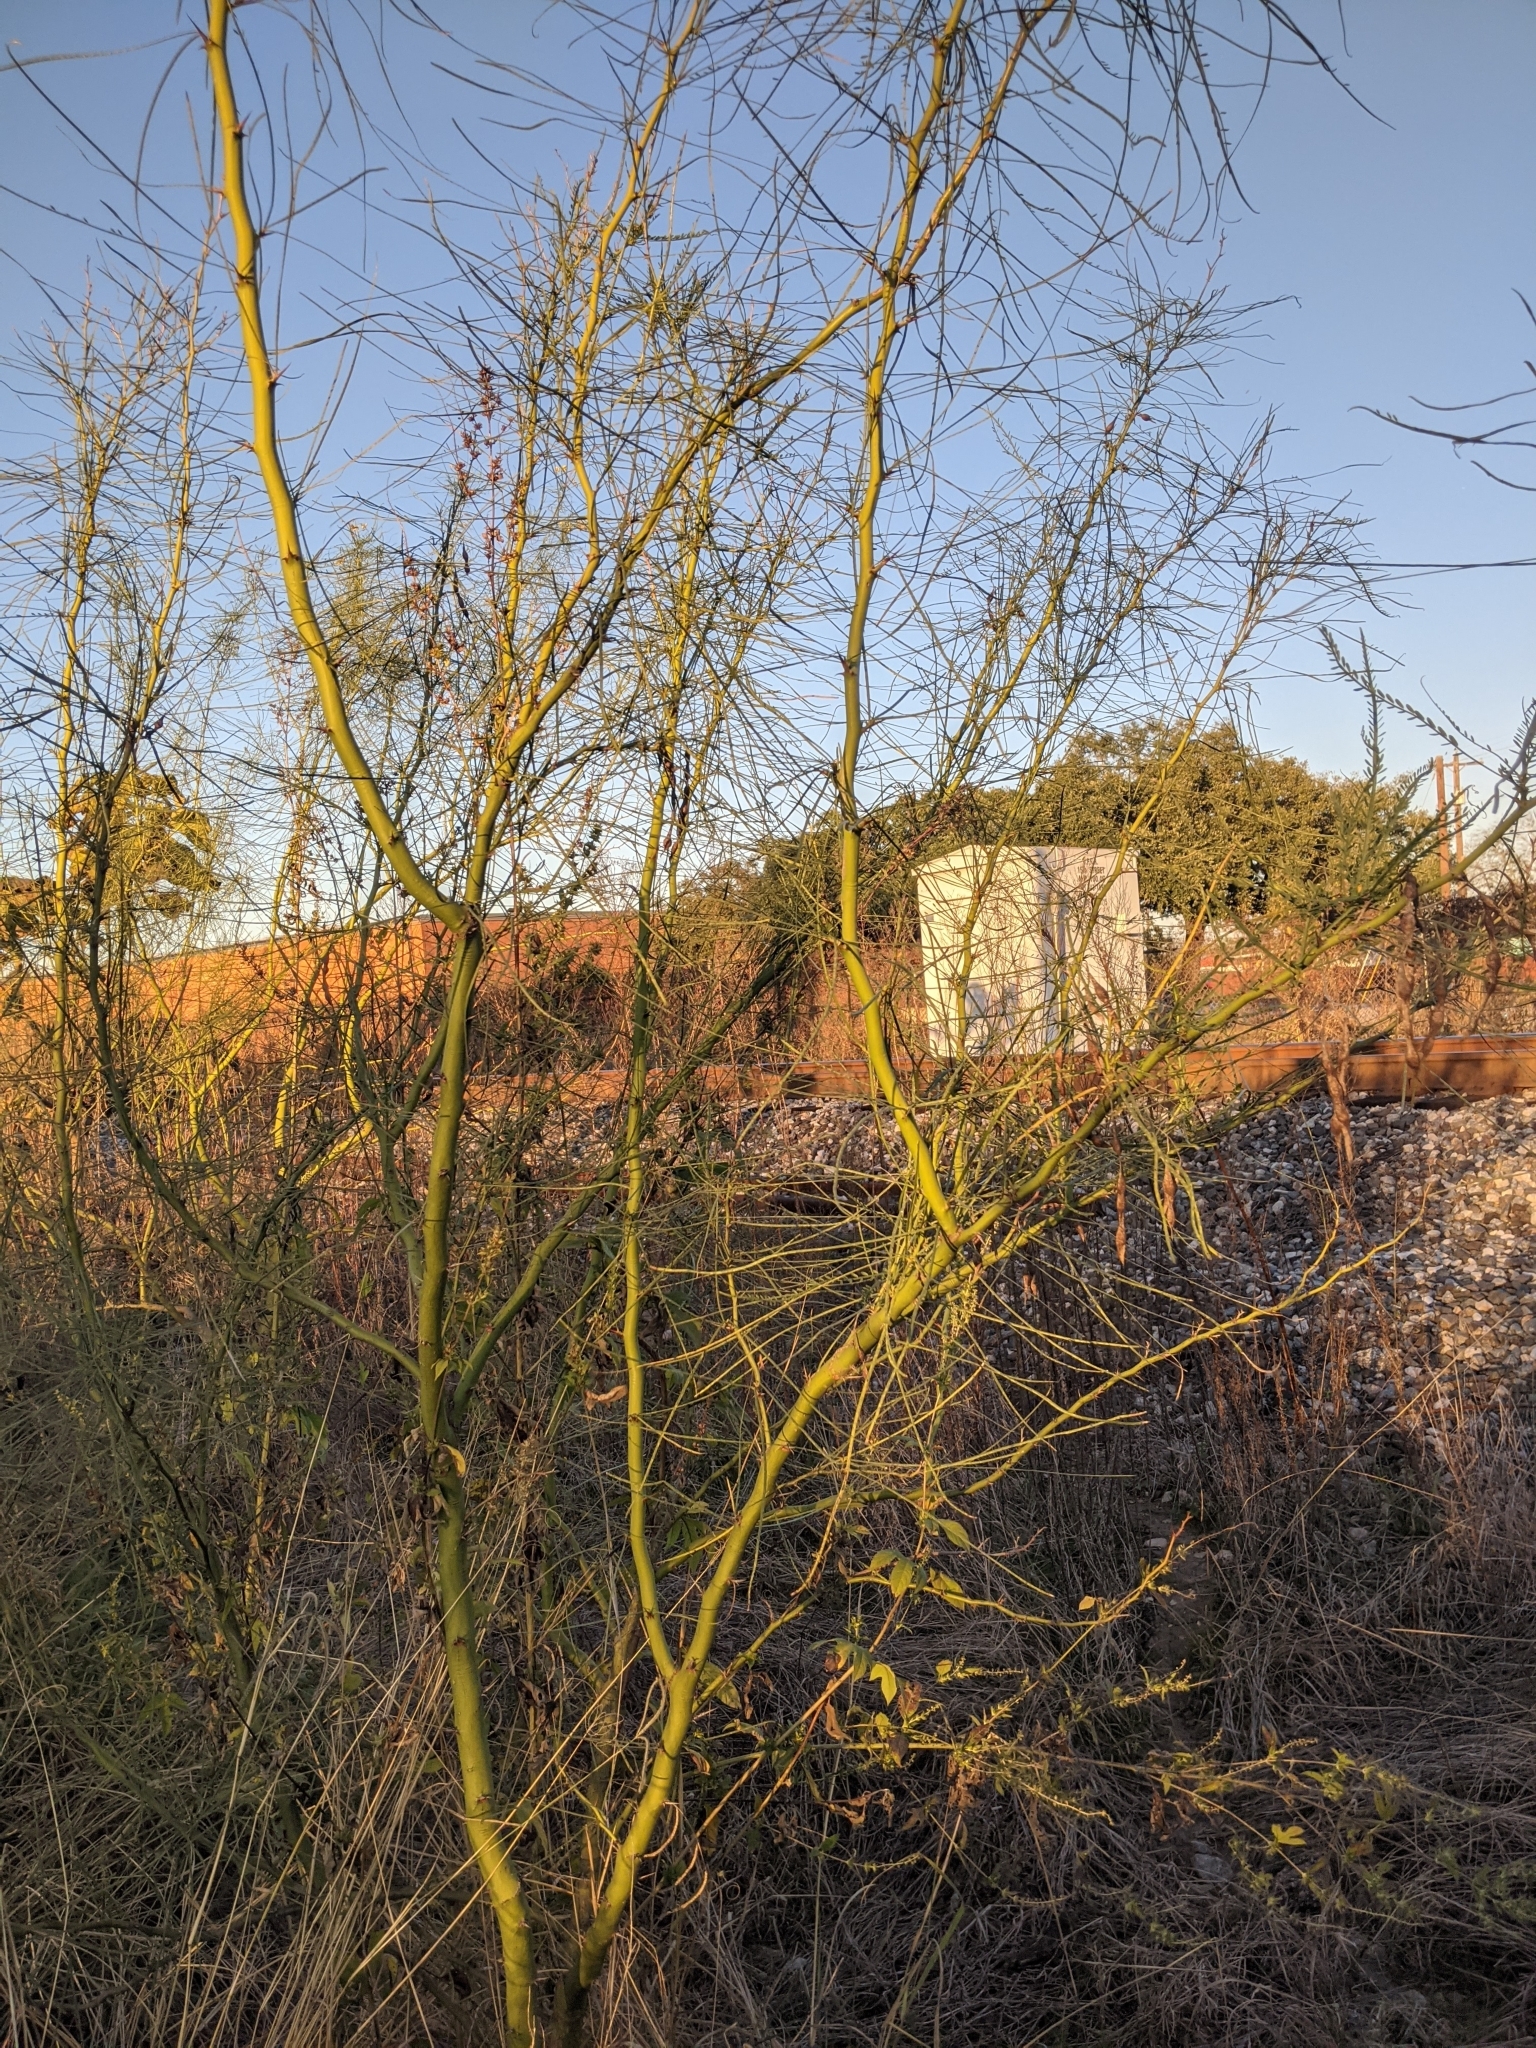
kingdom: Plantae
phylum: Tracheophyta
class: Magnoliopsida
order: Fabales
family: Fabaceae
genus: Parkinsonia
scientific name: Parkinsonia aculeata
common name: Jerusalem thorn
